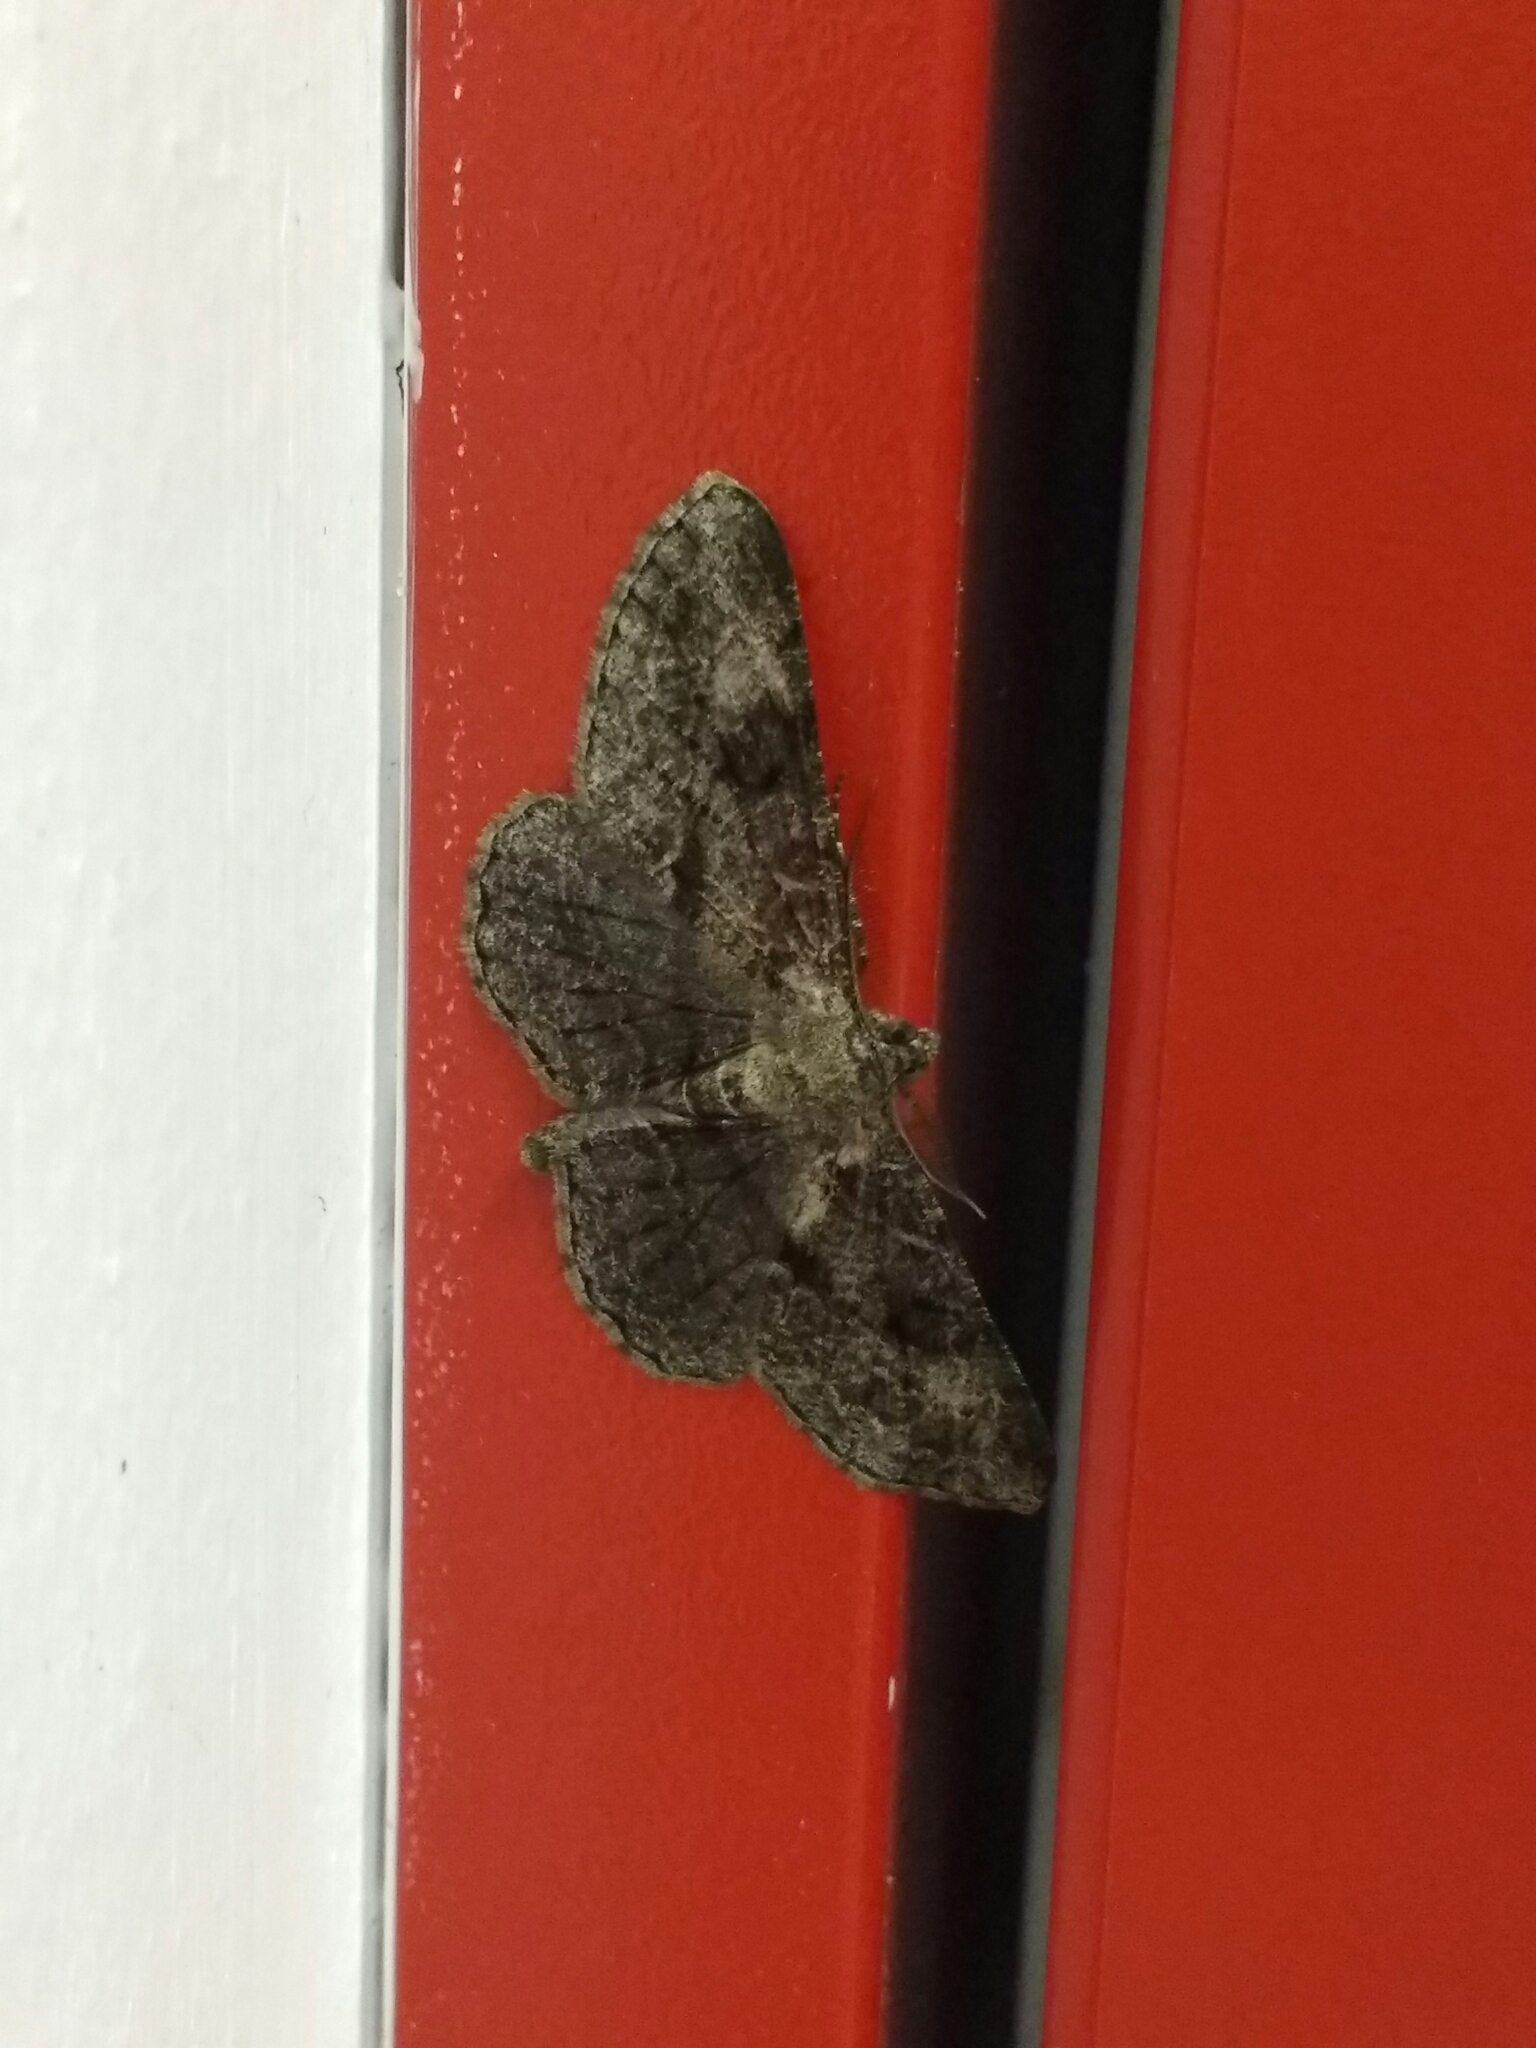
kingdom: Animalia
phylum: Arthropoda
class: Insecta
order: Lepidoptera
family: Geometridae
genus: Peribatodes
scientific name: Peribatodes rhomboidaria
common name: Willow beauty
